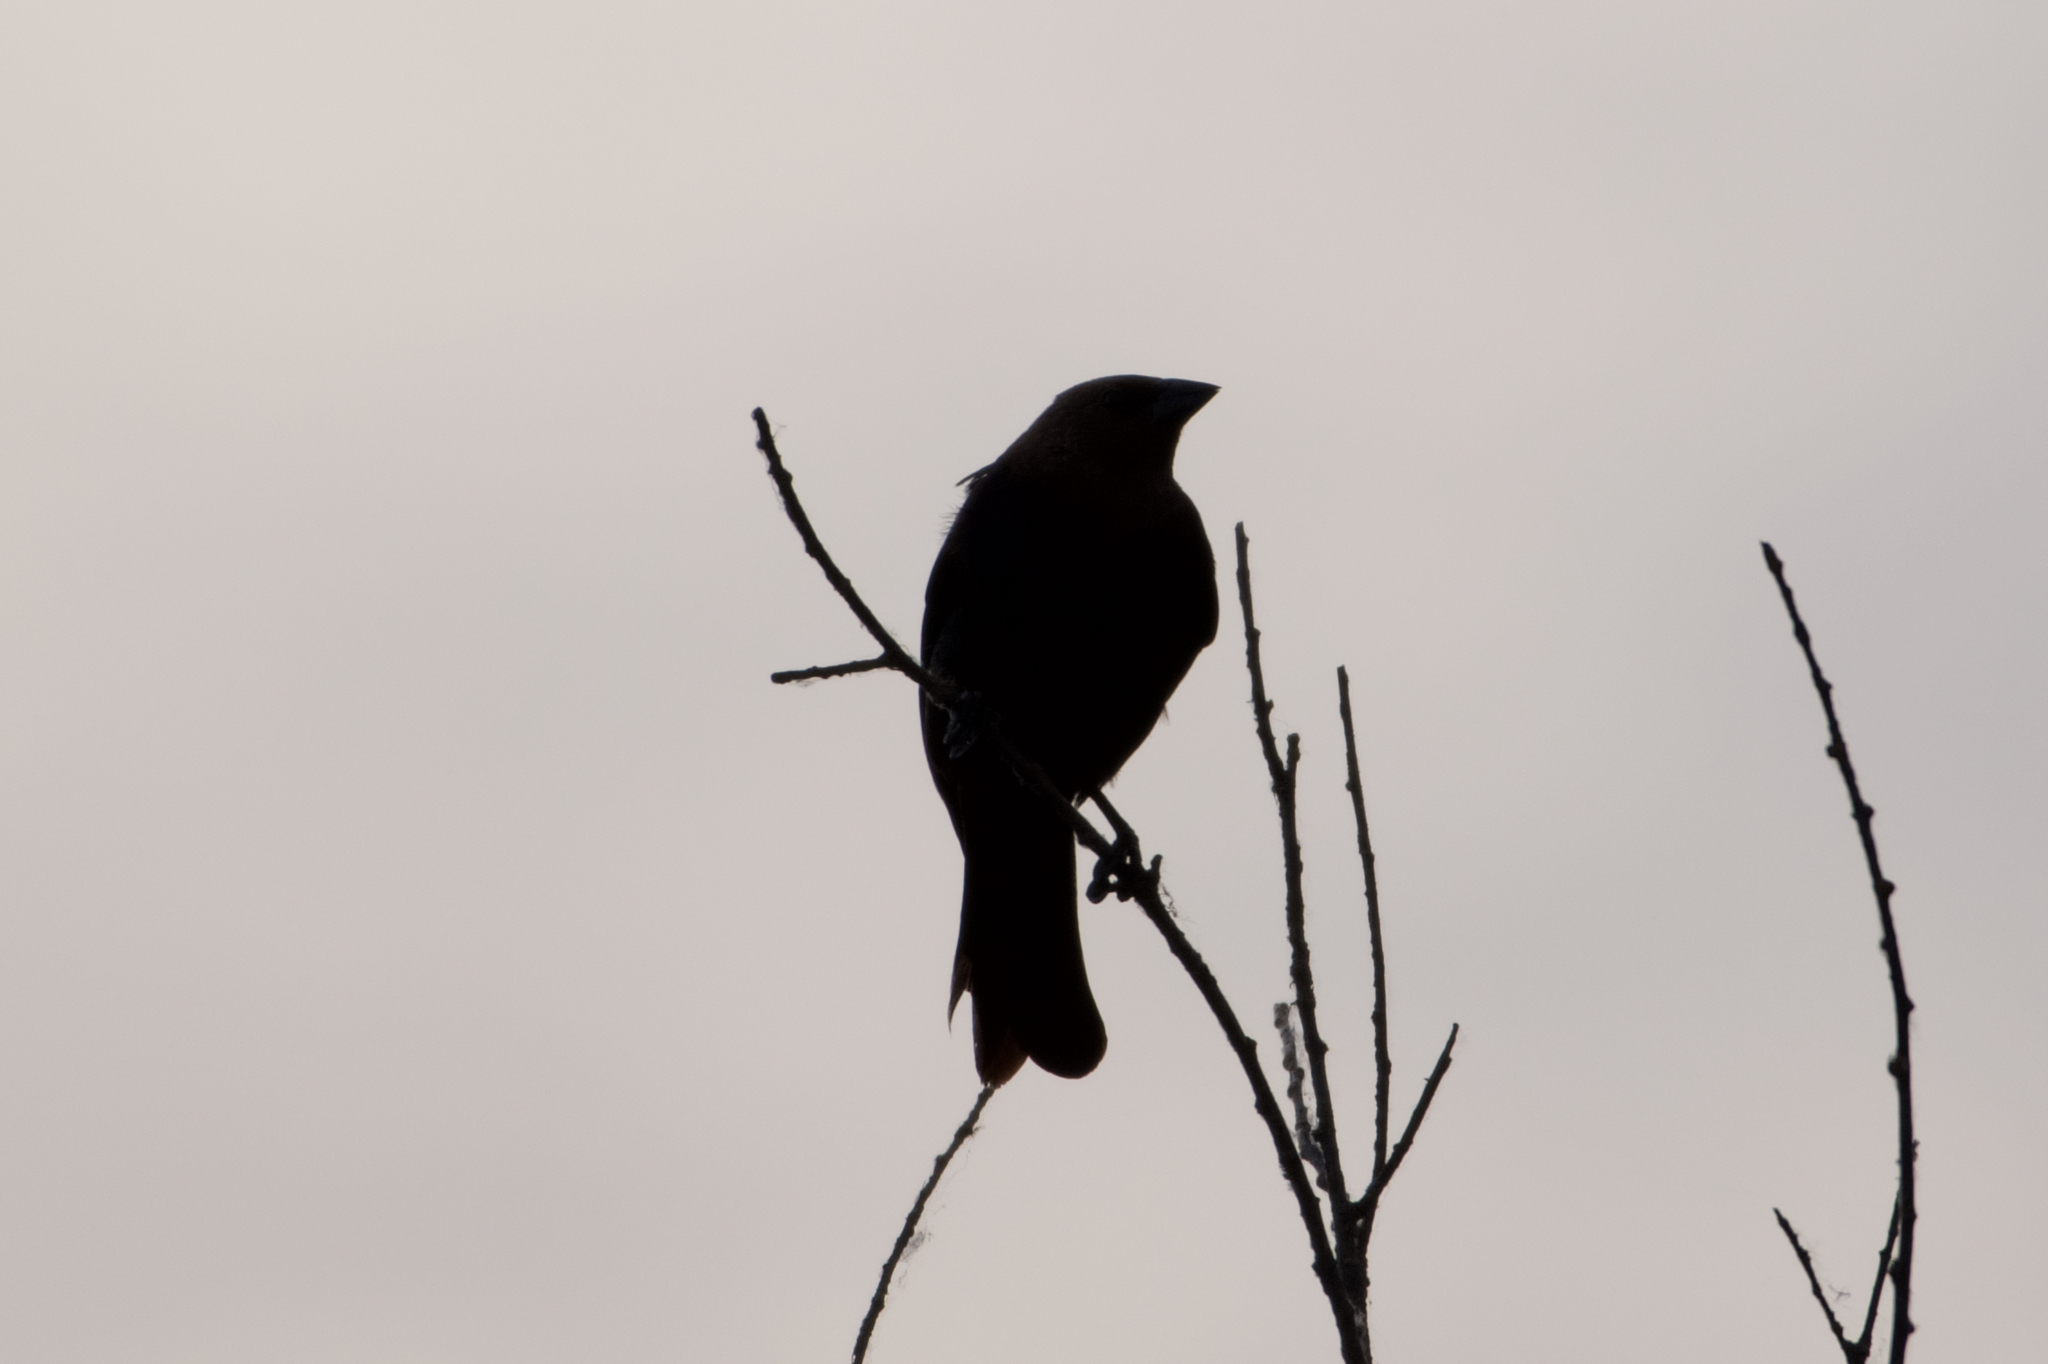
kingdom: Animalia
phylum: Chordata
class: Aves
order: Passeriformes
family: Icteridae
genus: Molothrus
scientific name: Molothrus ater
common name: Brown-headed cowbird
